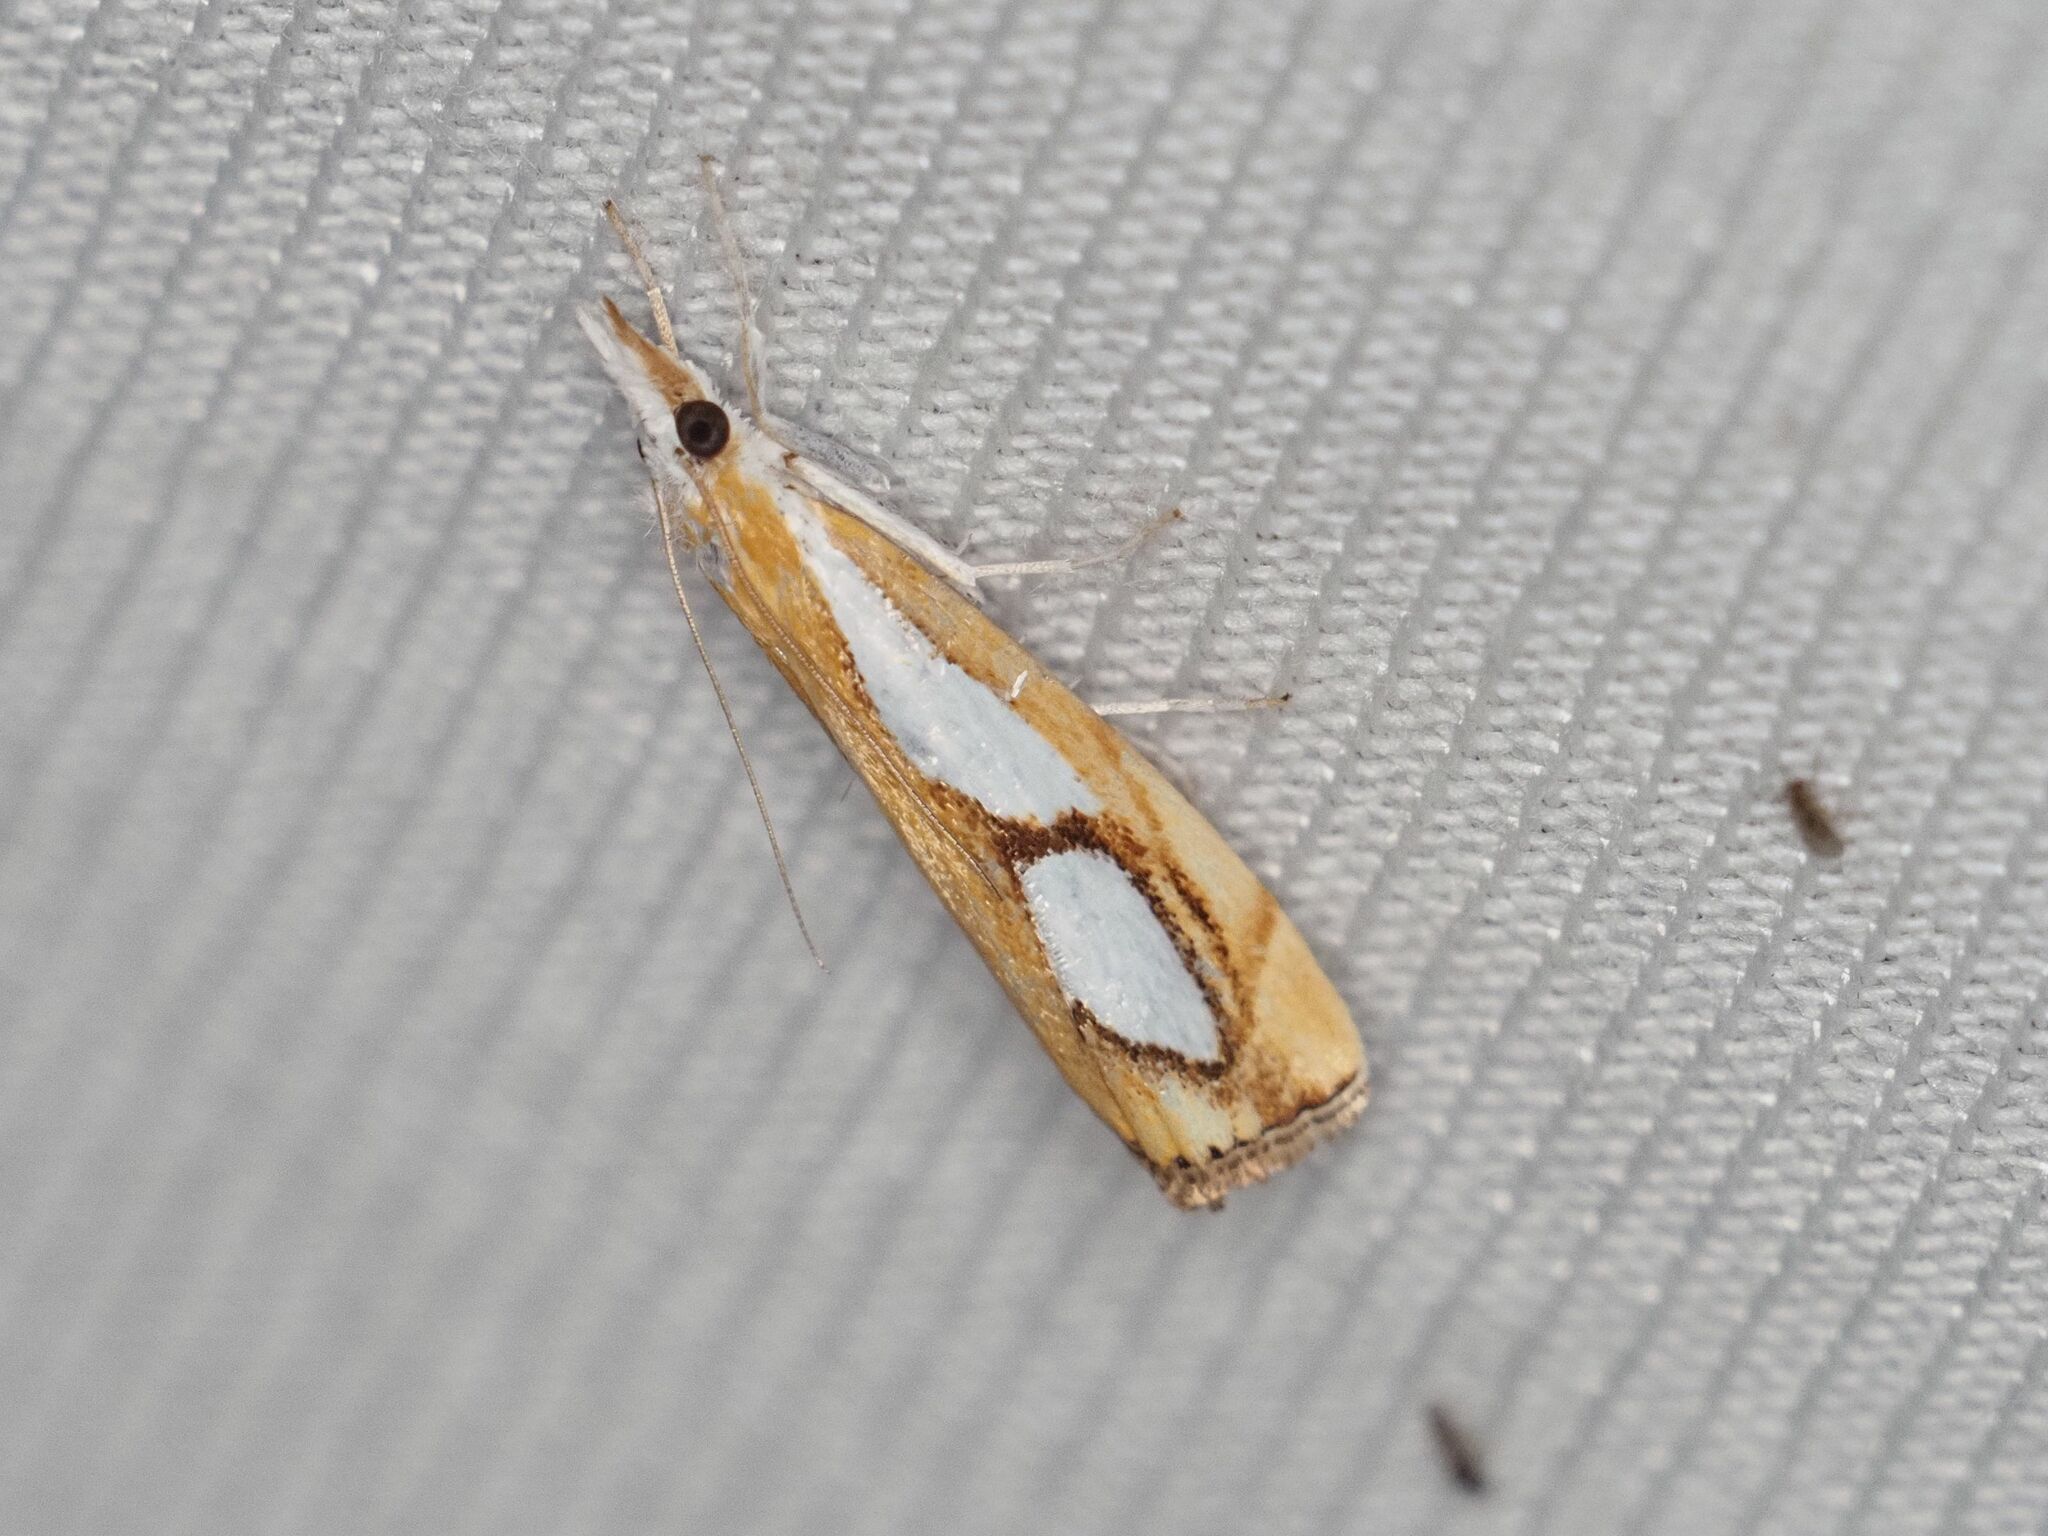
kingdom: Animalia
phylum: Arthropoda
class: Insecta
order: Lepidoptera
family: Crambidae
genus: Catoptria
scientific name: Catoptria pinella
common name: Pearl grass-veneer
